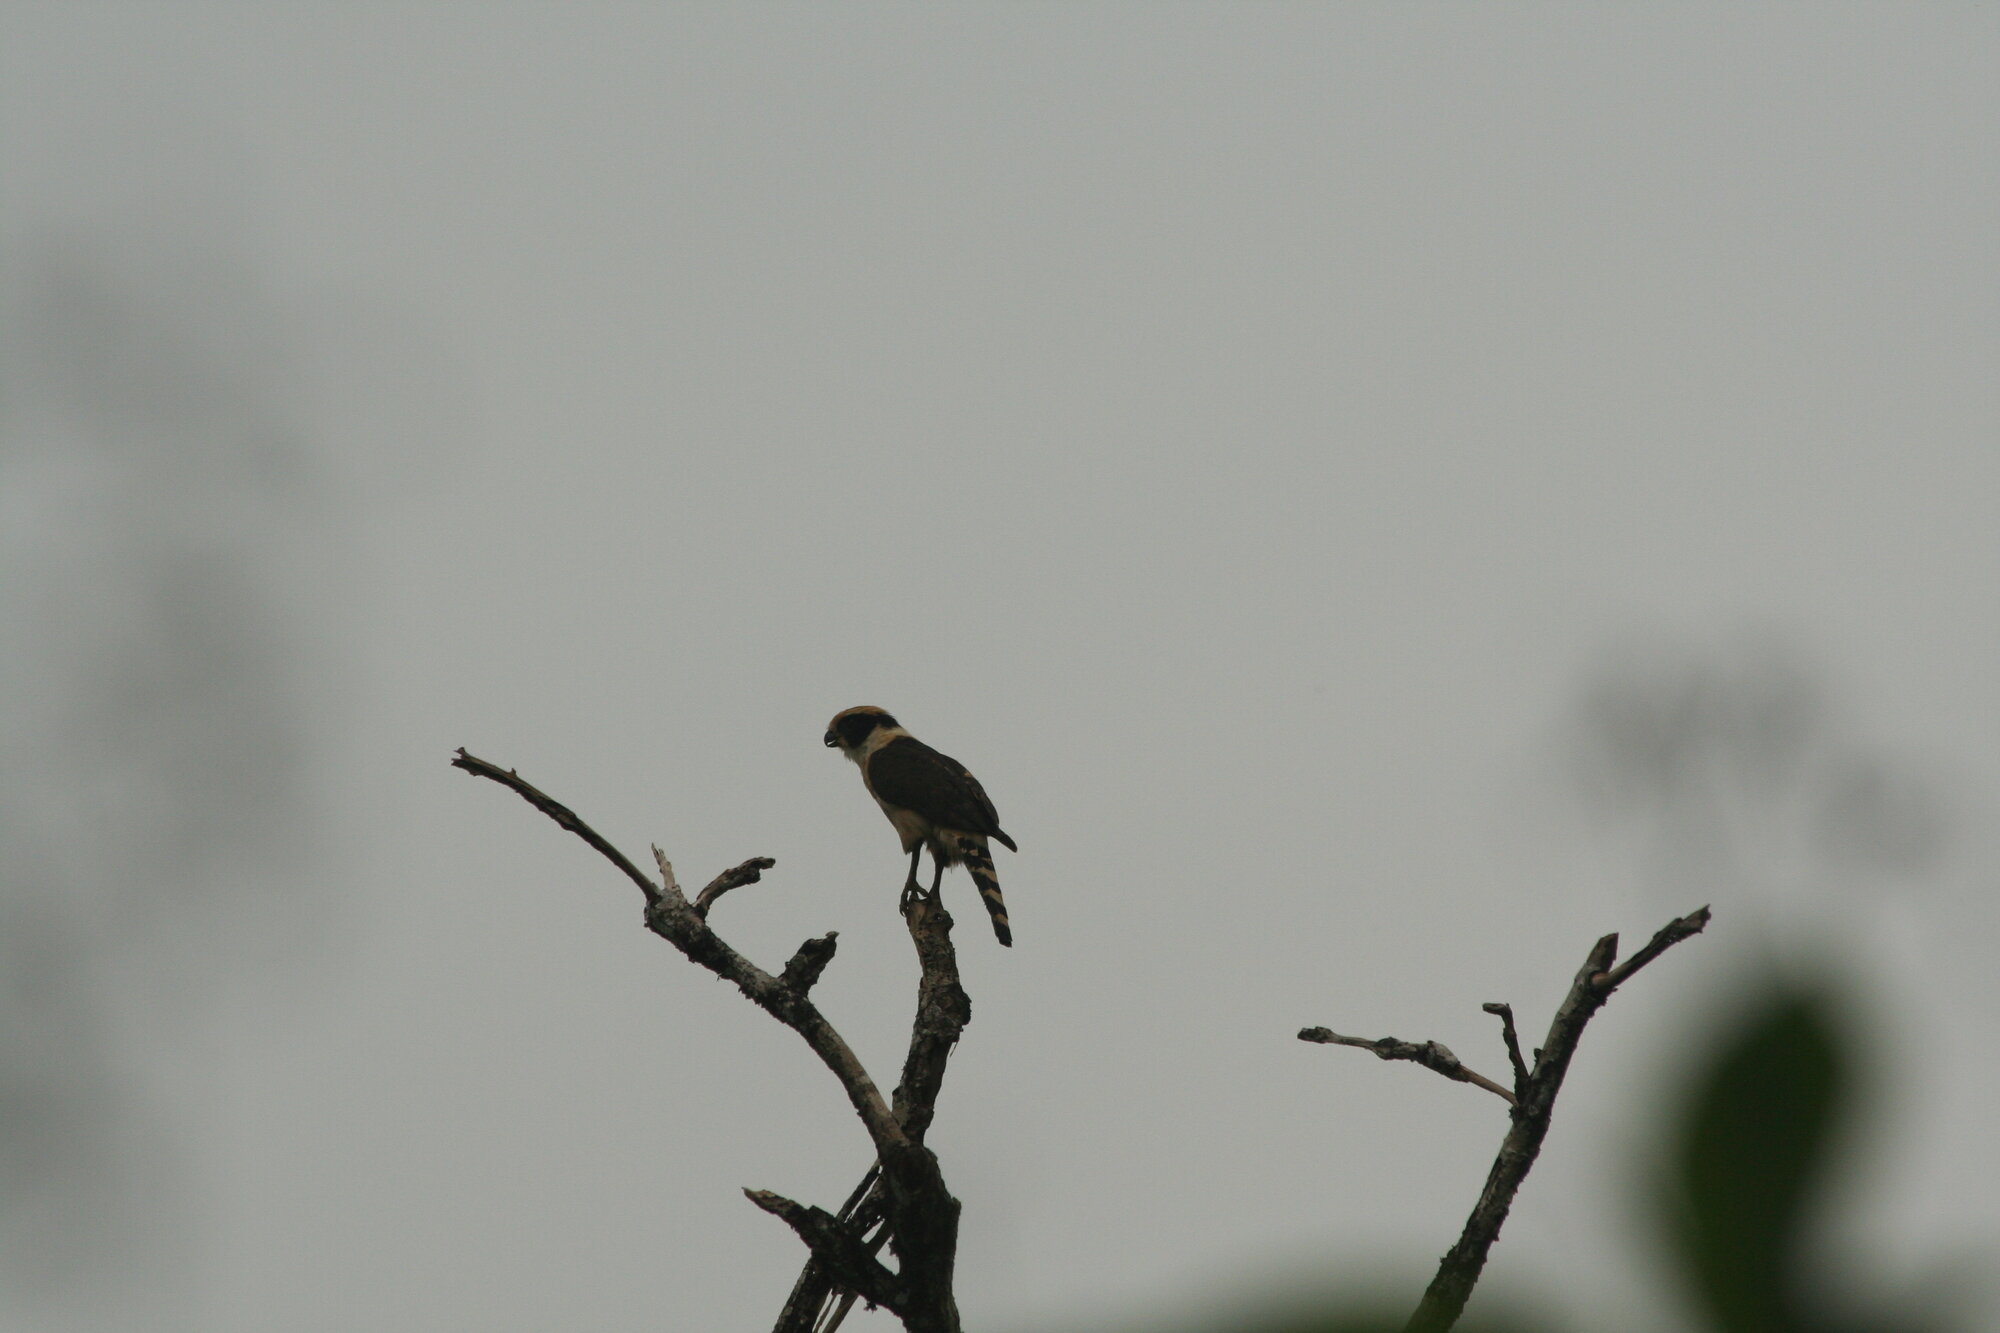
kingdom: Animalia
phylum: Chordata
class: Aves
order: Falconiformes
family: Falconidae
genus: Herpetotheres
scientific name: Herpetotheres cachinnans
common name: Laughing falcon
